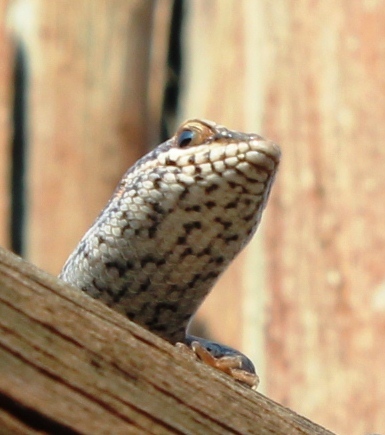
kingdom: Animalia
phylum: Chordata
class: Squamata
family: Scincidae
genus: Trachylepis
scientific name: Trachylepis spilogaster
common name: Kalahari tree skink
